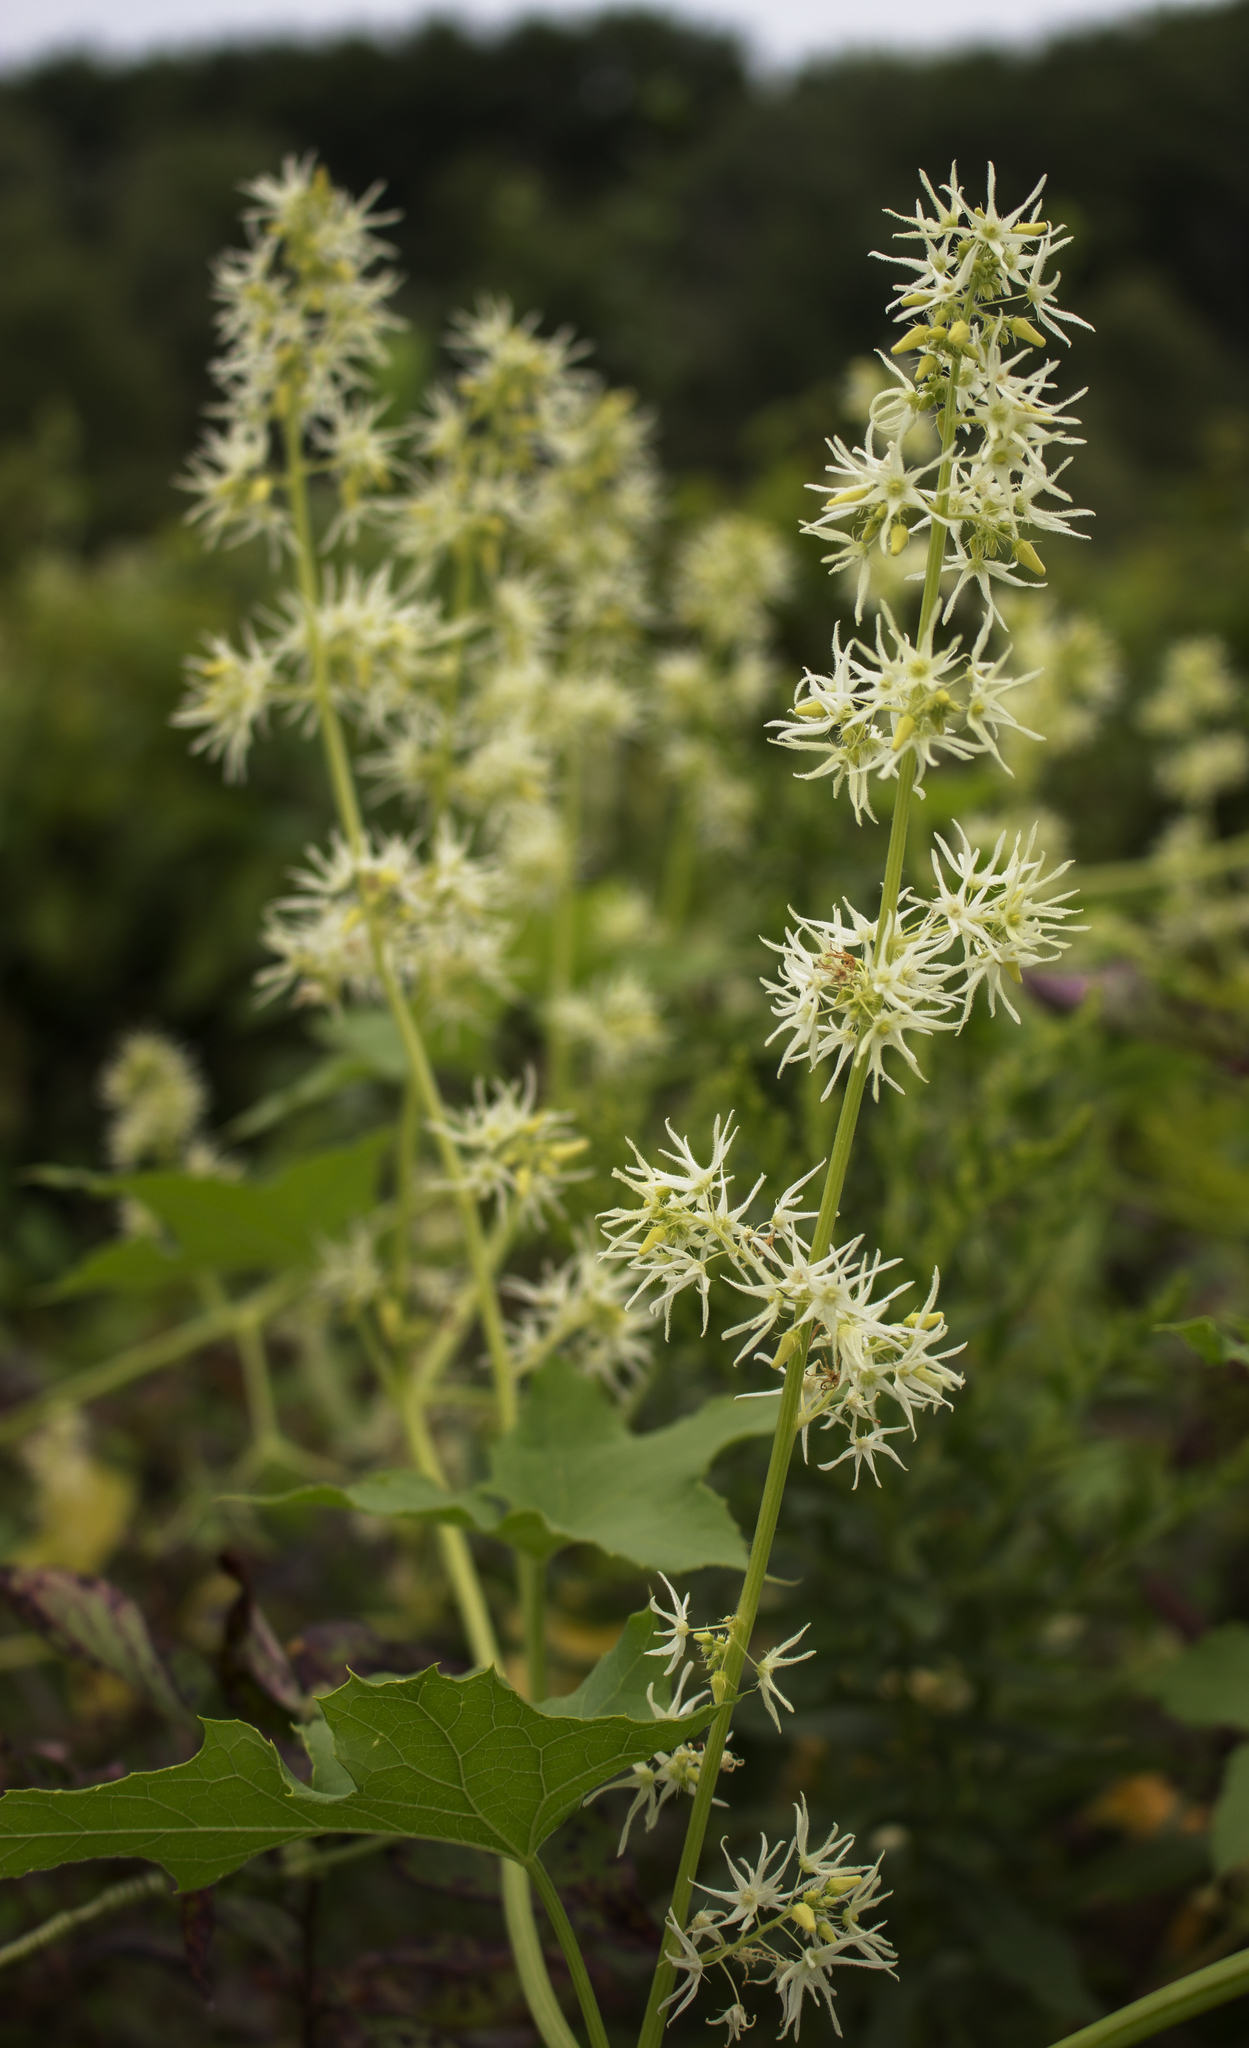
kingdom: Plantae
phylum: Tracheophyta
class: Magnoliopsida
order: Cucurbitales
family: Cucurbitaceae
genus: Echinocystis
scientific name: Echinocystis lobata
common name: Wild cucumber
